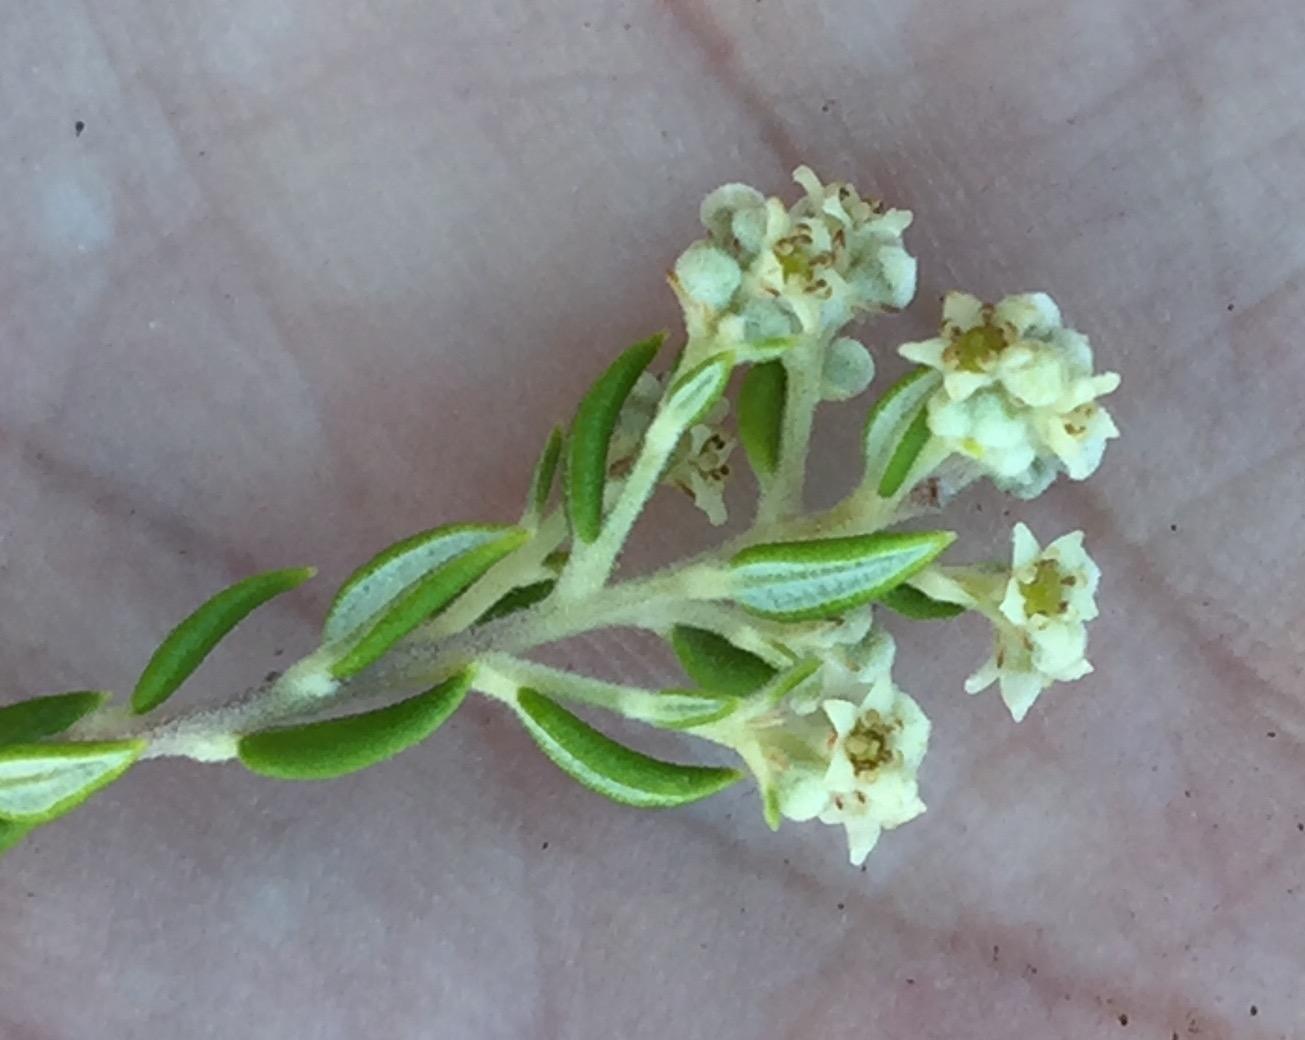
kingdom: Plantae
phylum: Tracheophyta
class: Magnoliopsida
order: Rosales
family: Rhamnaceae
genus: Phylica
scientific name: Phylica paniculata
